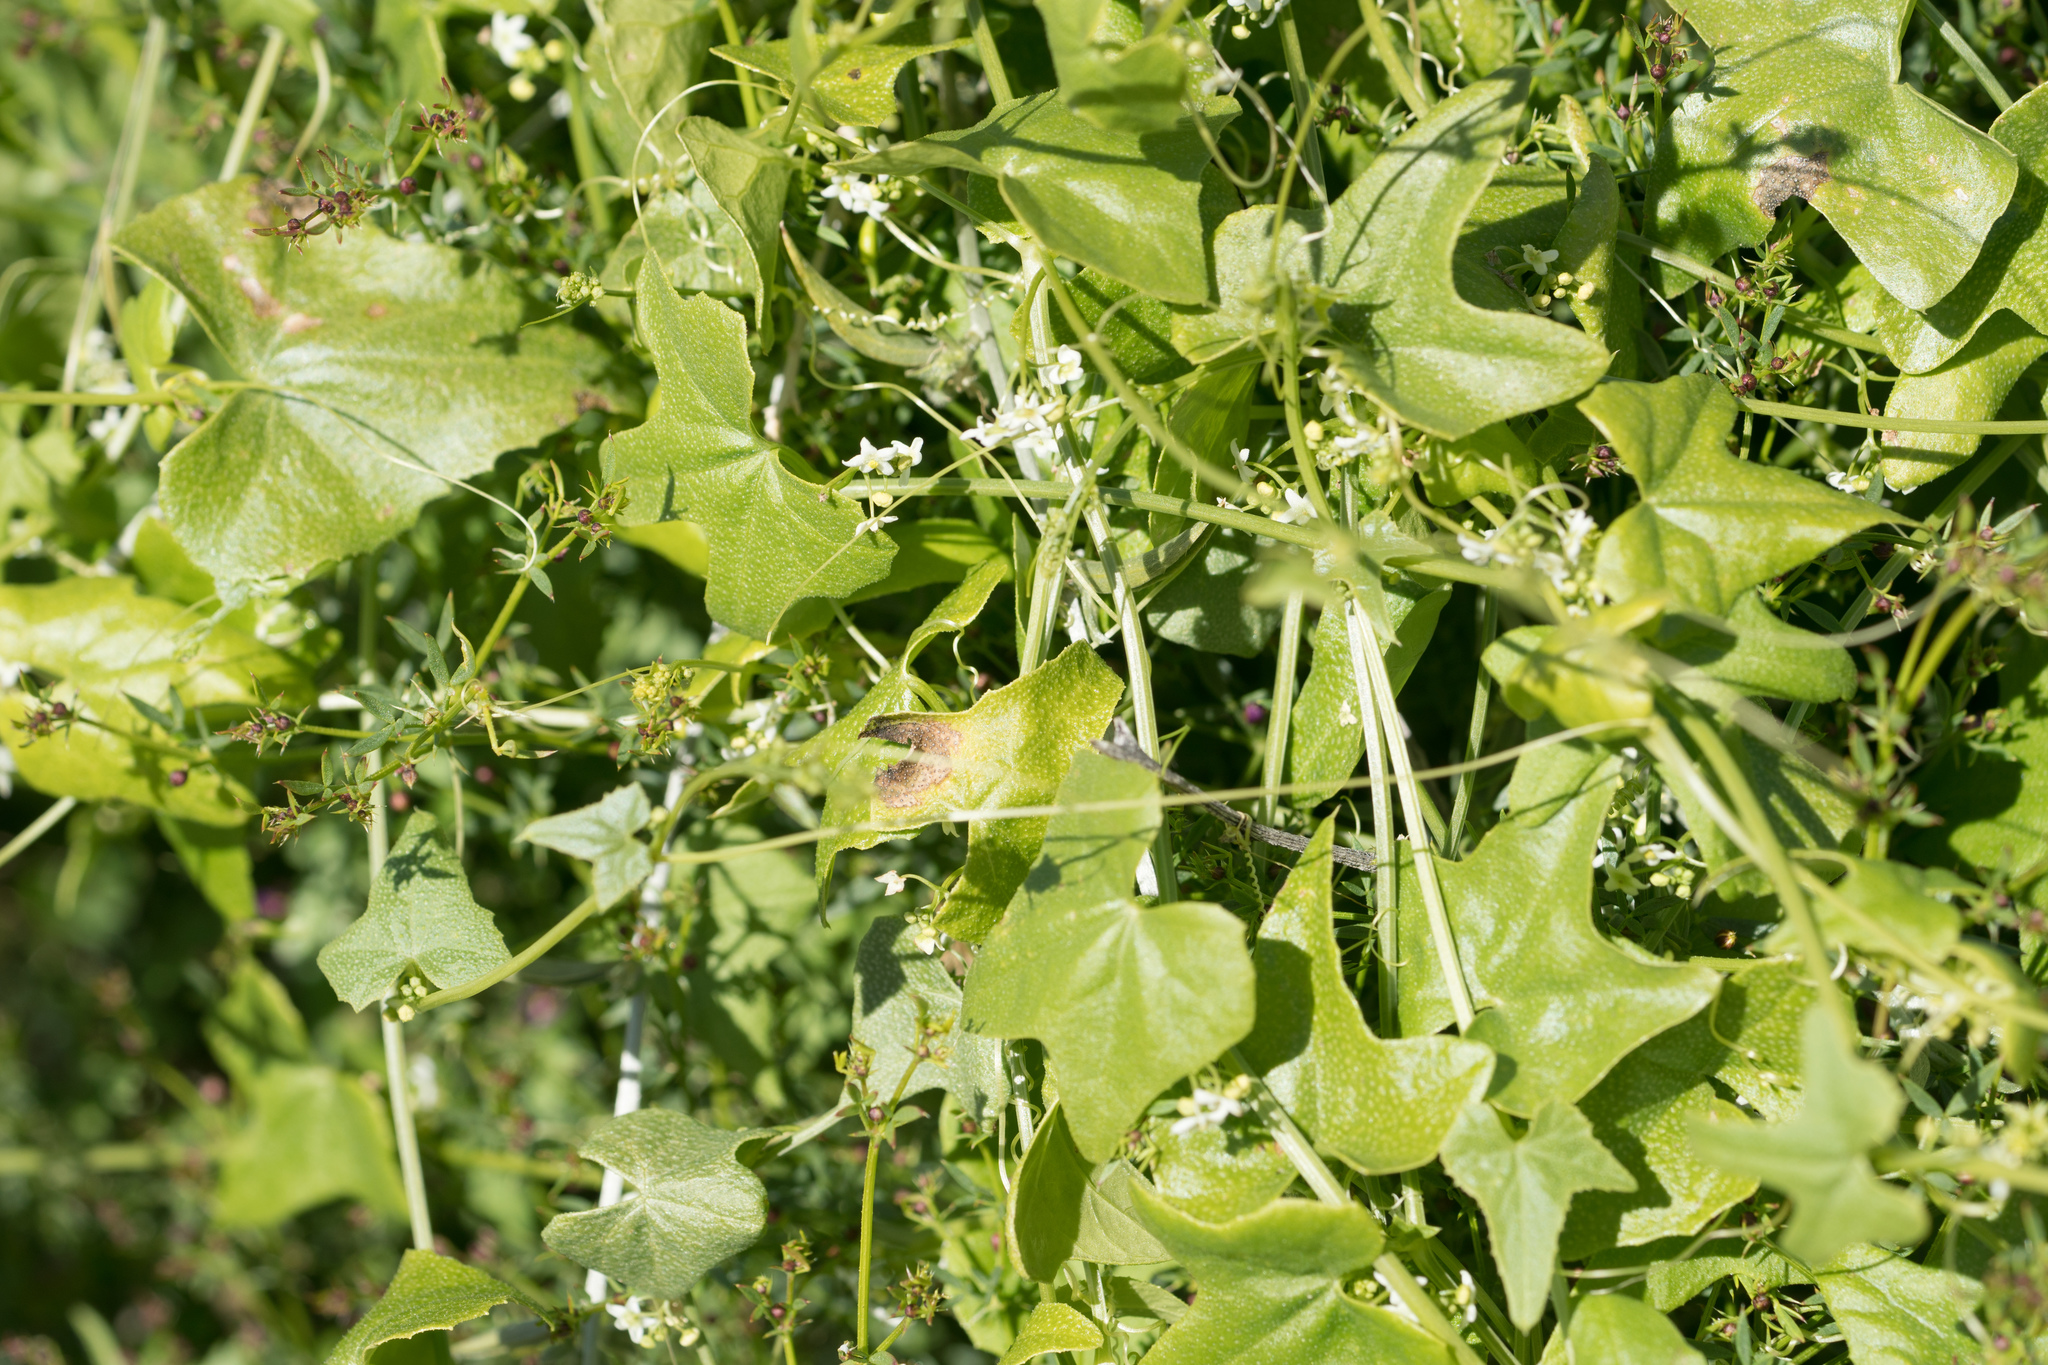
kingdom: Plantae
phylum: Tracheophyta
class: Magnoliopsida
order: Cucurbitales
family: Cucurbitaceae
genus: Echinopepon
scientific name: Echinopepon bigelovii
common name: Desert starvine
